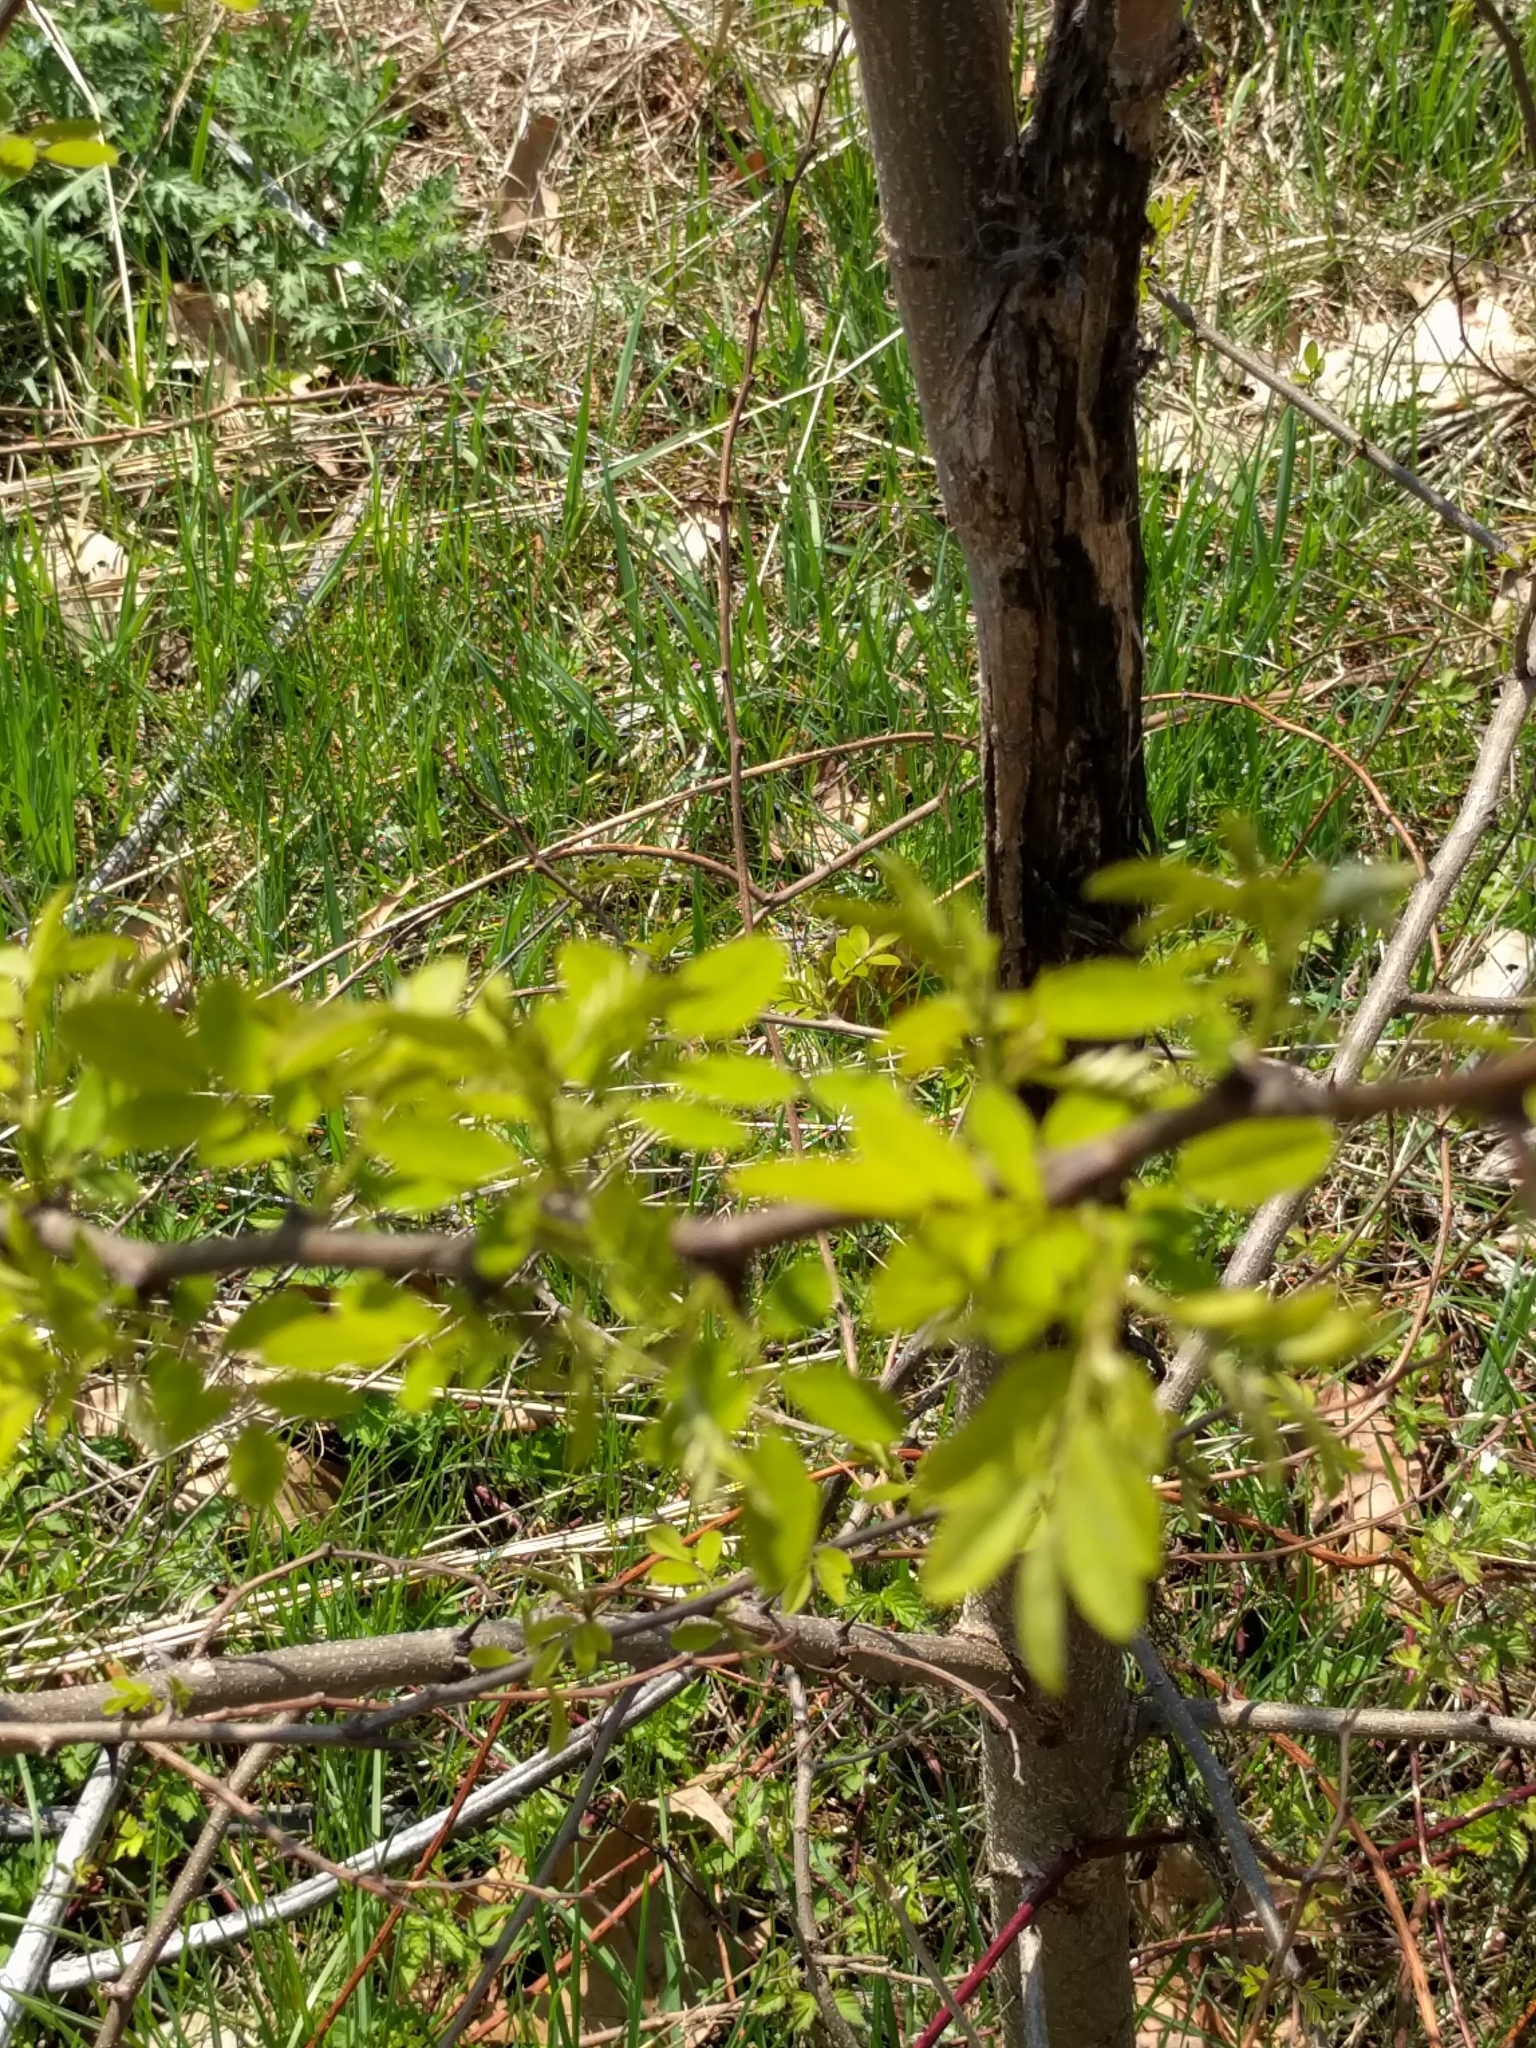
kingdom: Plantae
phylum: Tracheophyta
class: Magnoliopsida
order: Fabales
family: Fabaceae
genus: Robinia
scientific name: Robinia pseudoacacia
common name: Black locust
